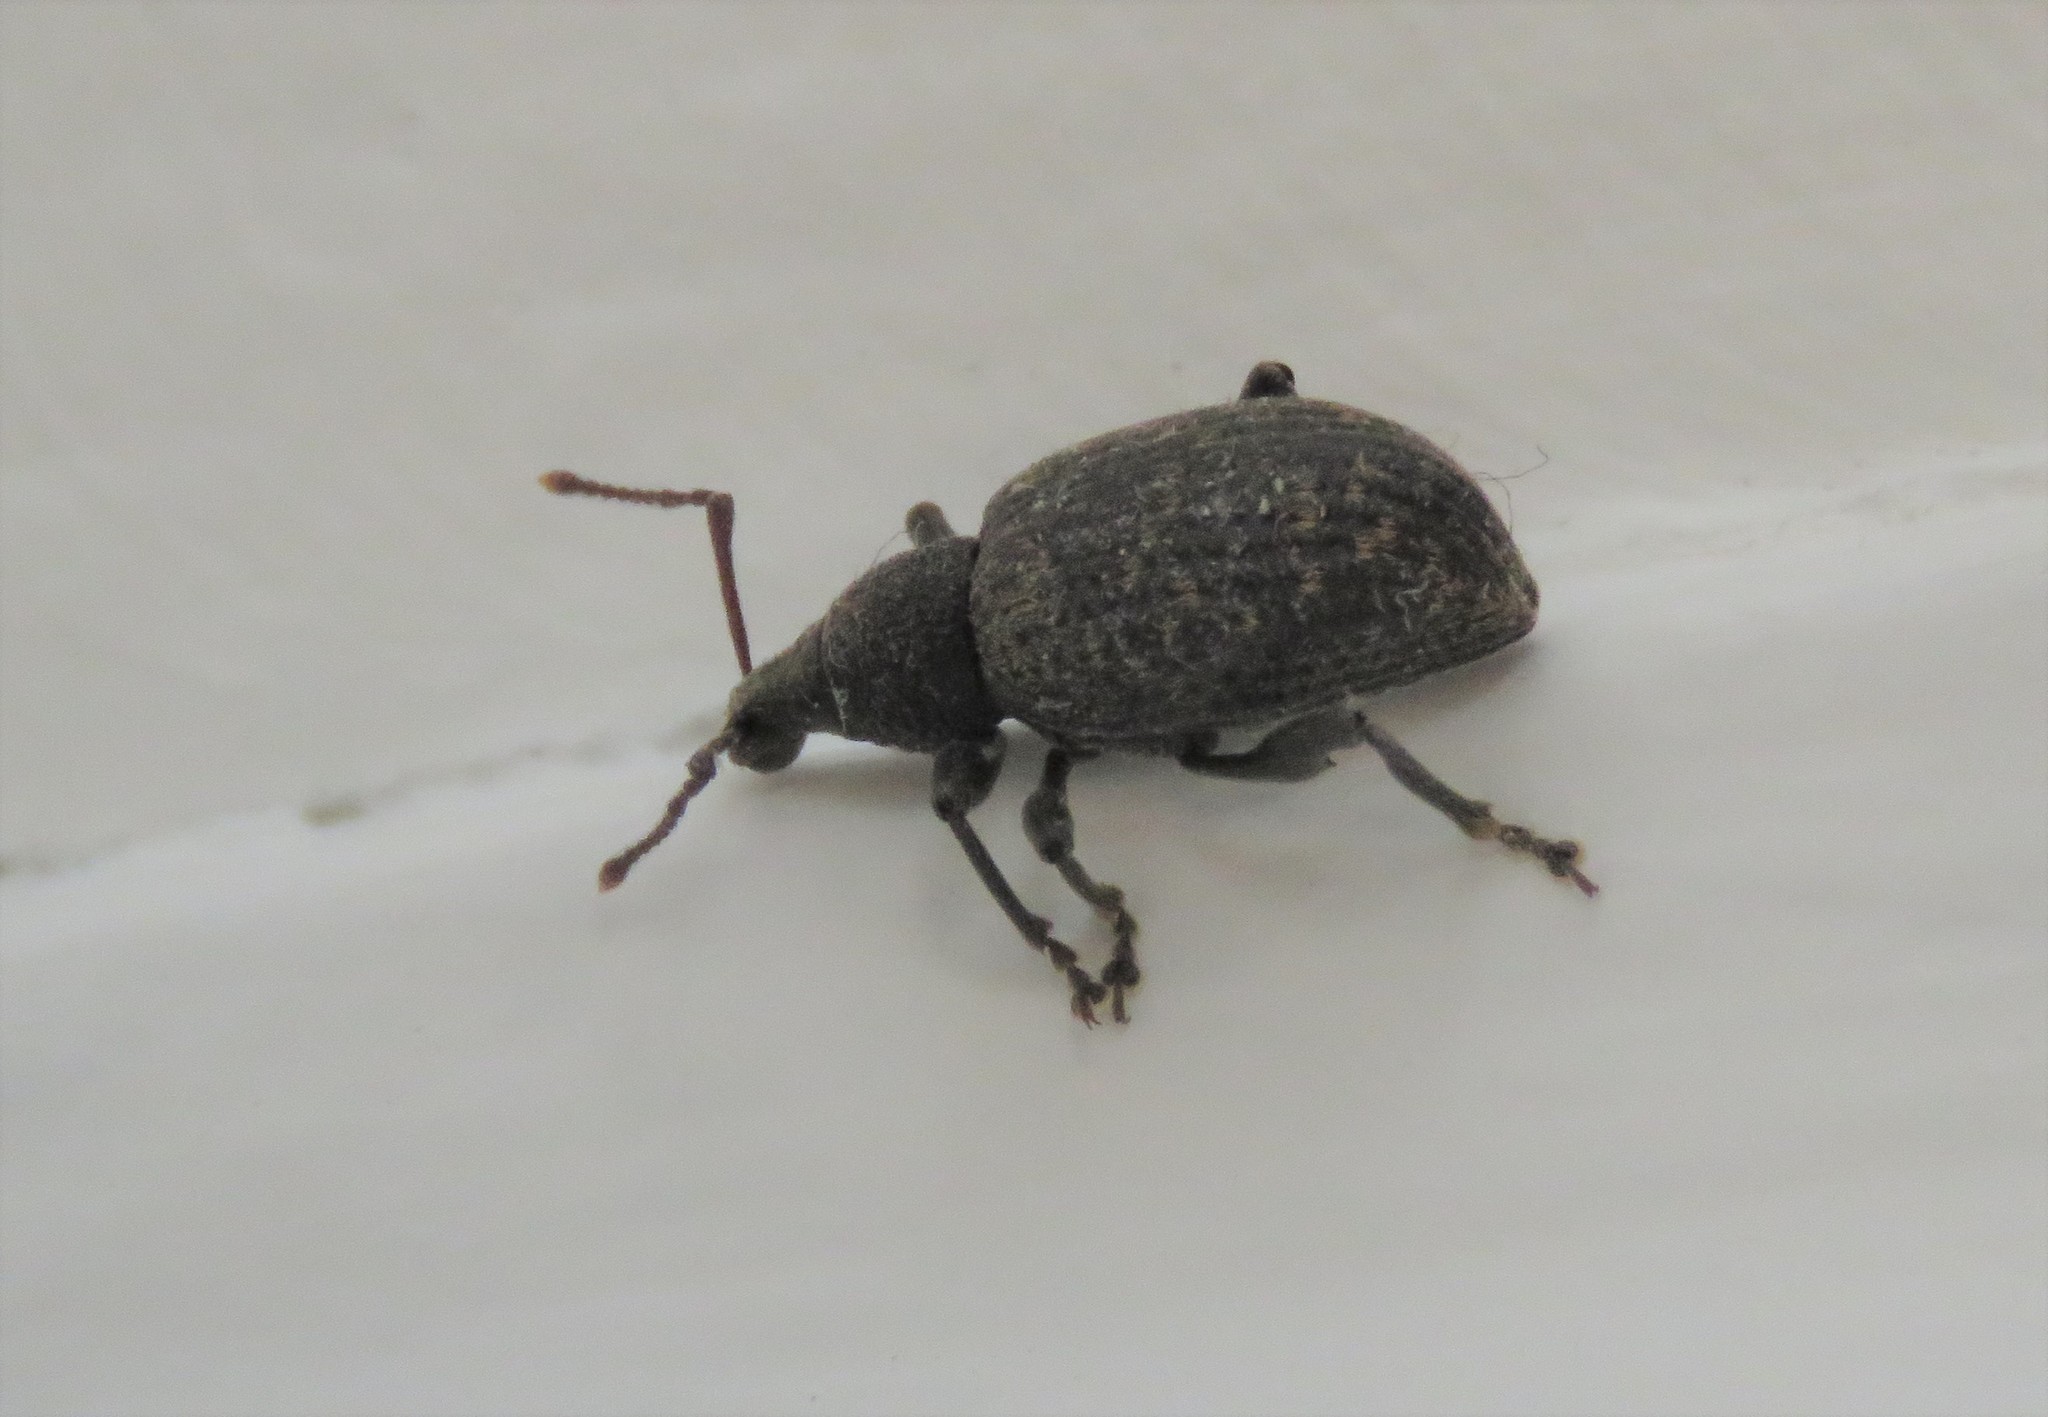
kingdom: Animalia
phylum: Arthropoda
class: Insecta
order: Coleoptera
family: Curculionidae
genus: Otiorhynchus
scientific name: Otiorhynchus sulcatus
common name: Black vine weevil
